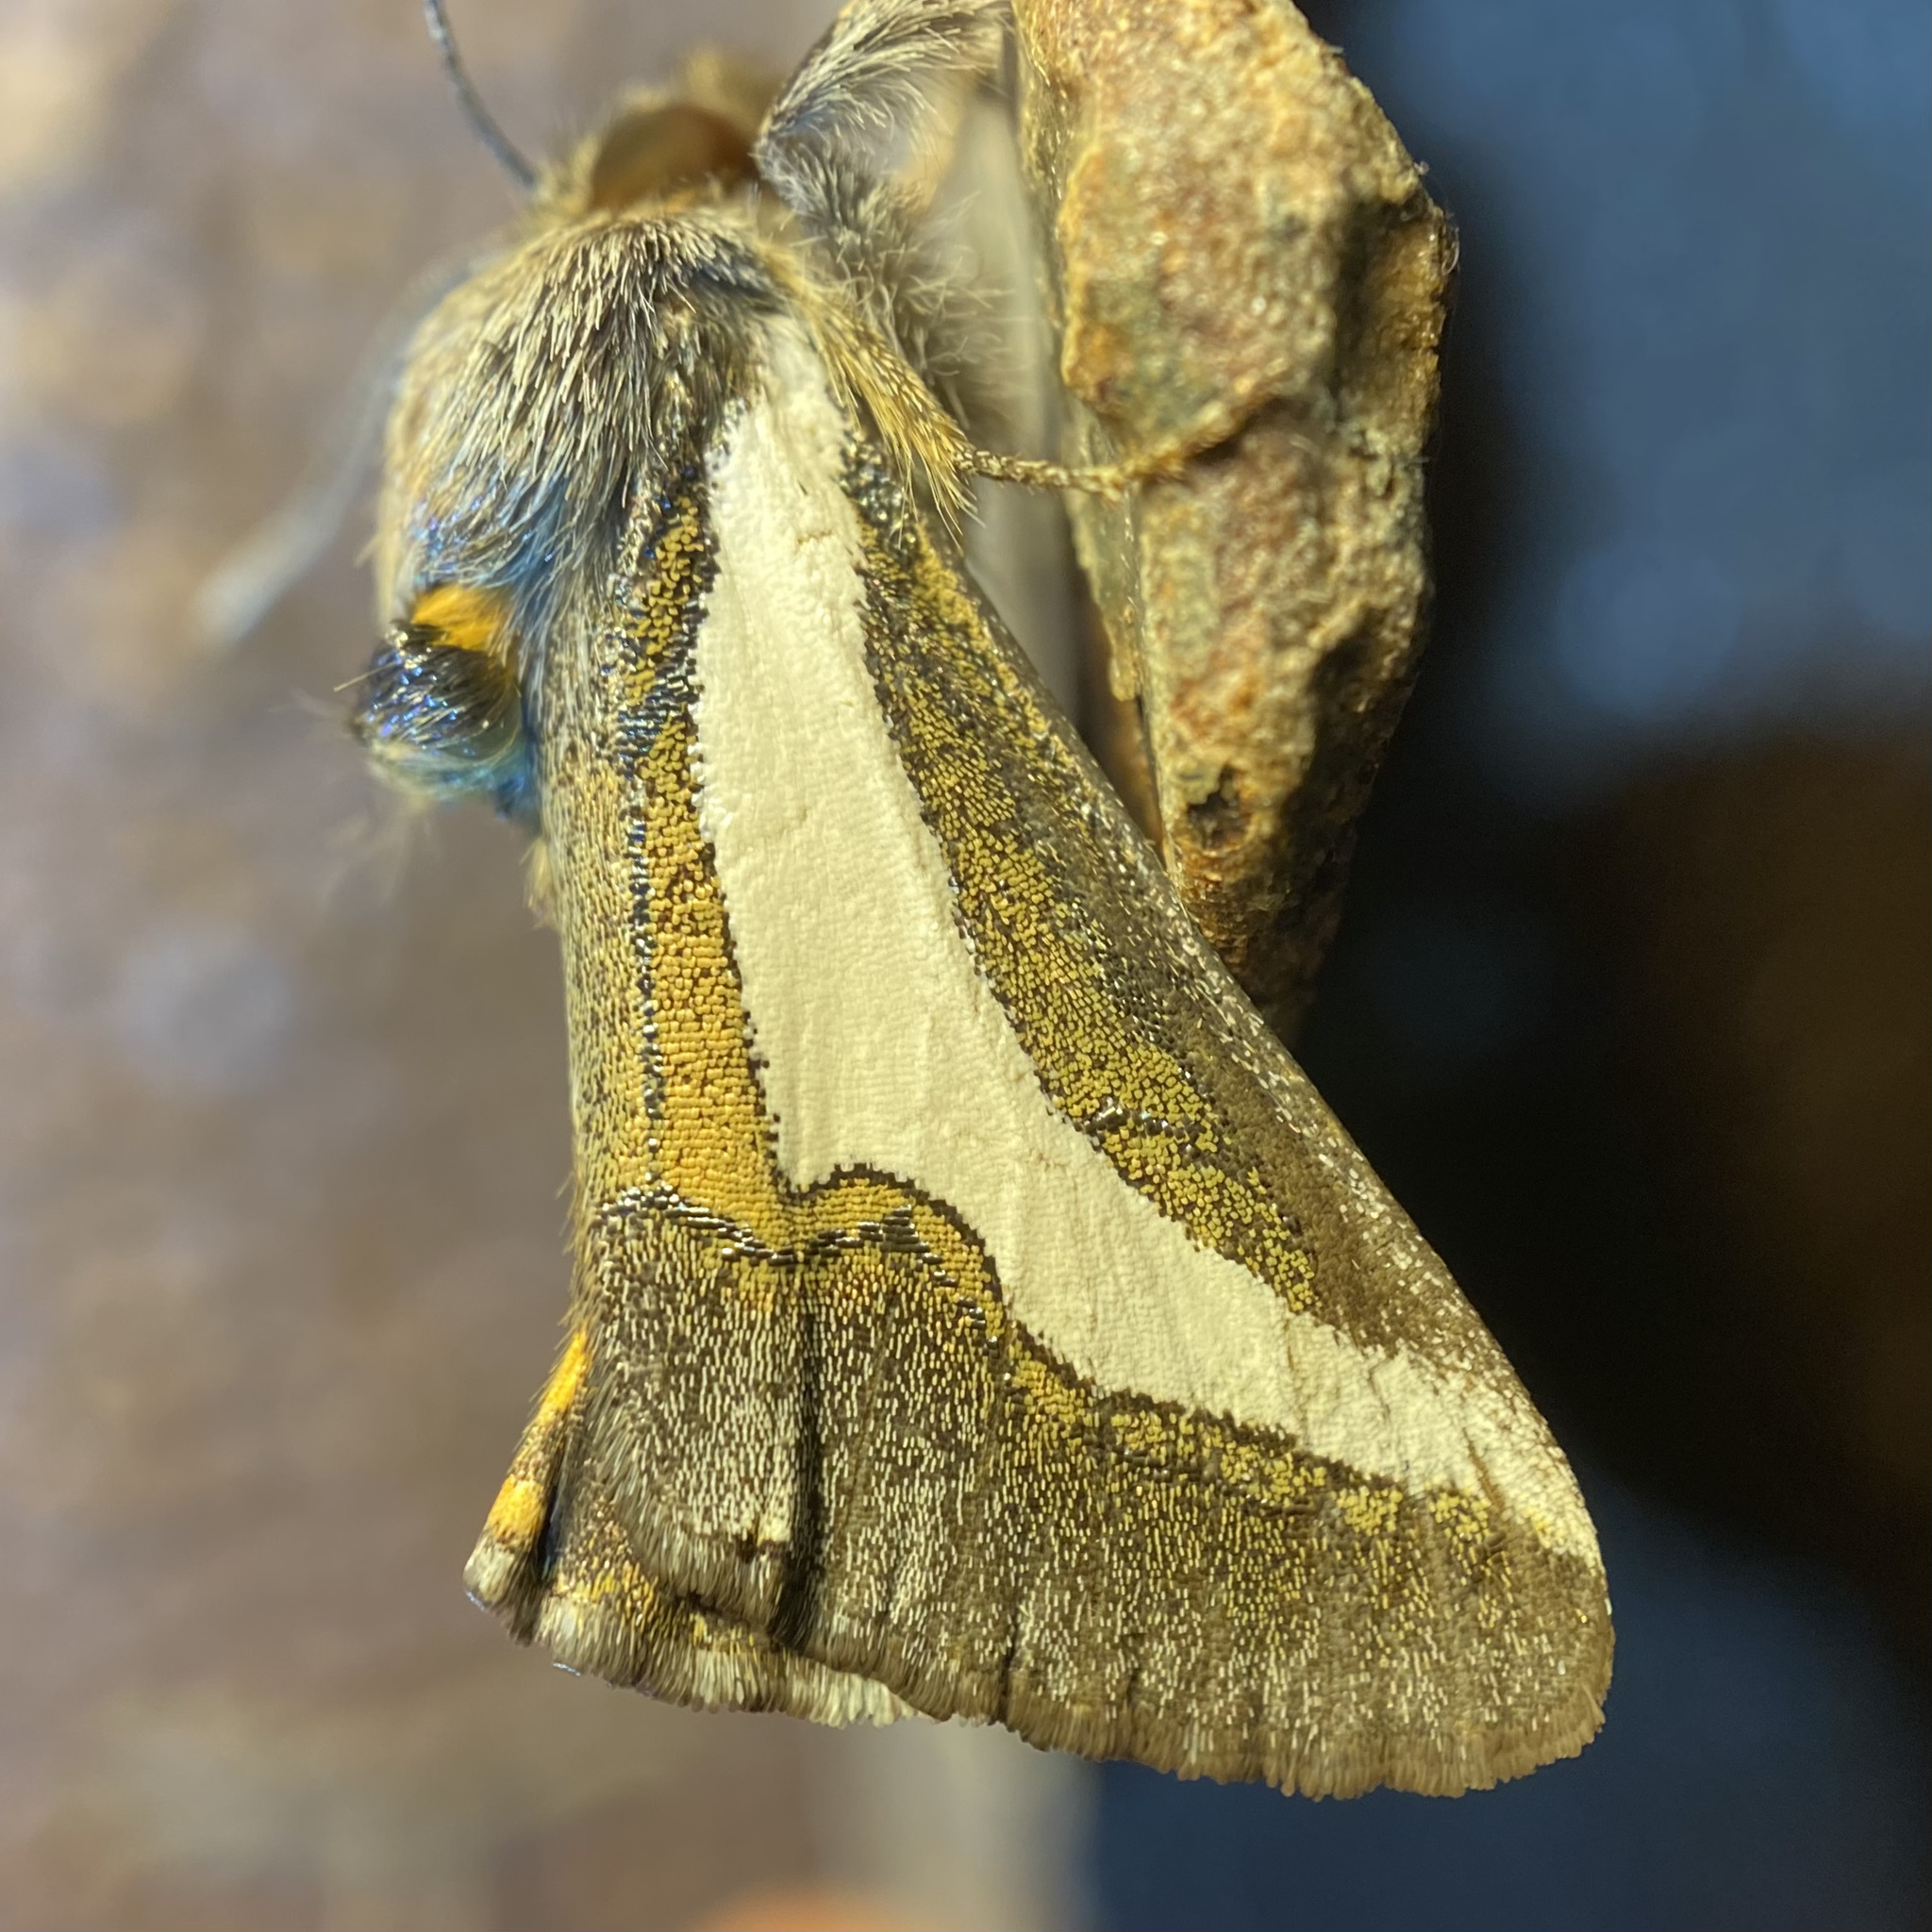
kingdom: Animalia
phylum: Arthropoda
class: Insecta
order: Lepidoptera
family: Noctuidae
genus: Euscirrhopterus
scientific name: Euscirrhopterus cosyra
